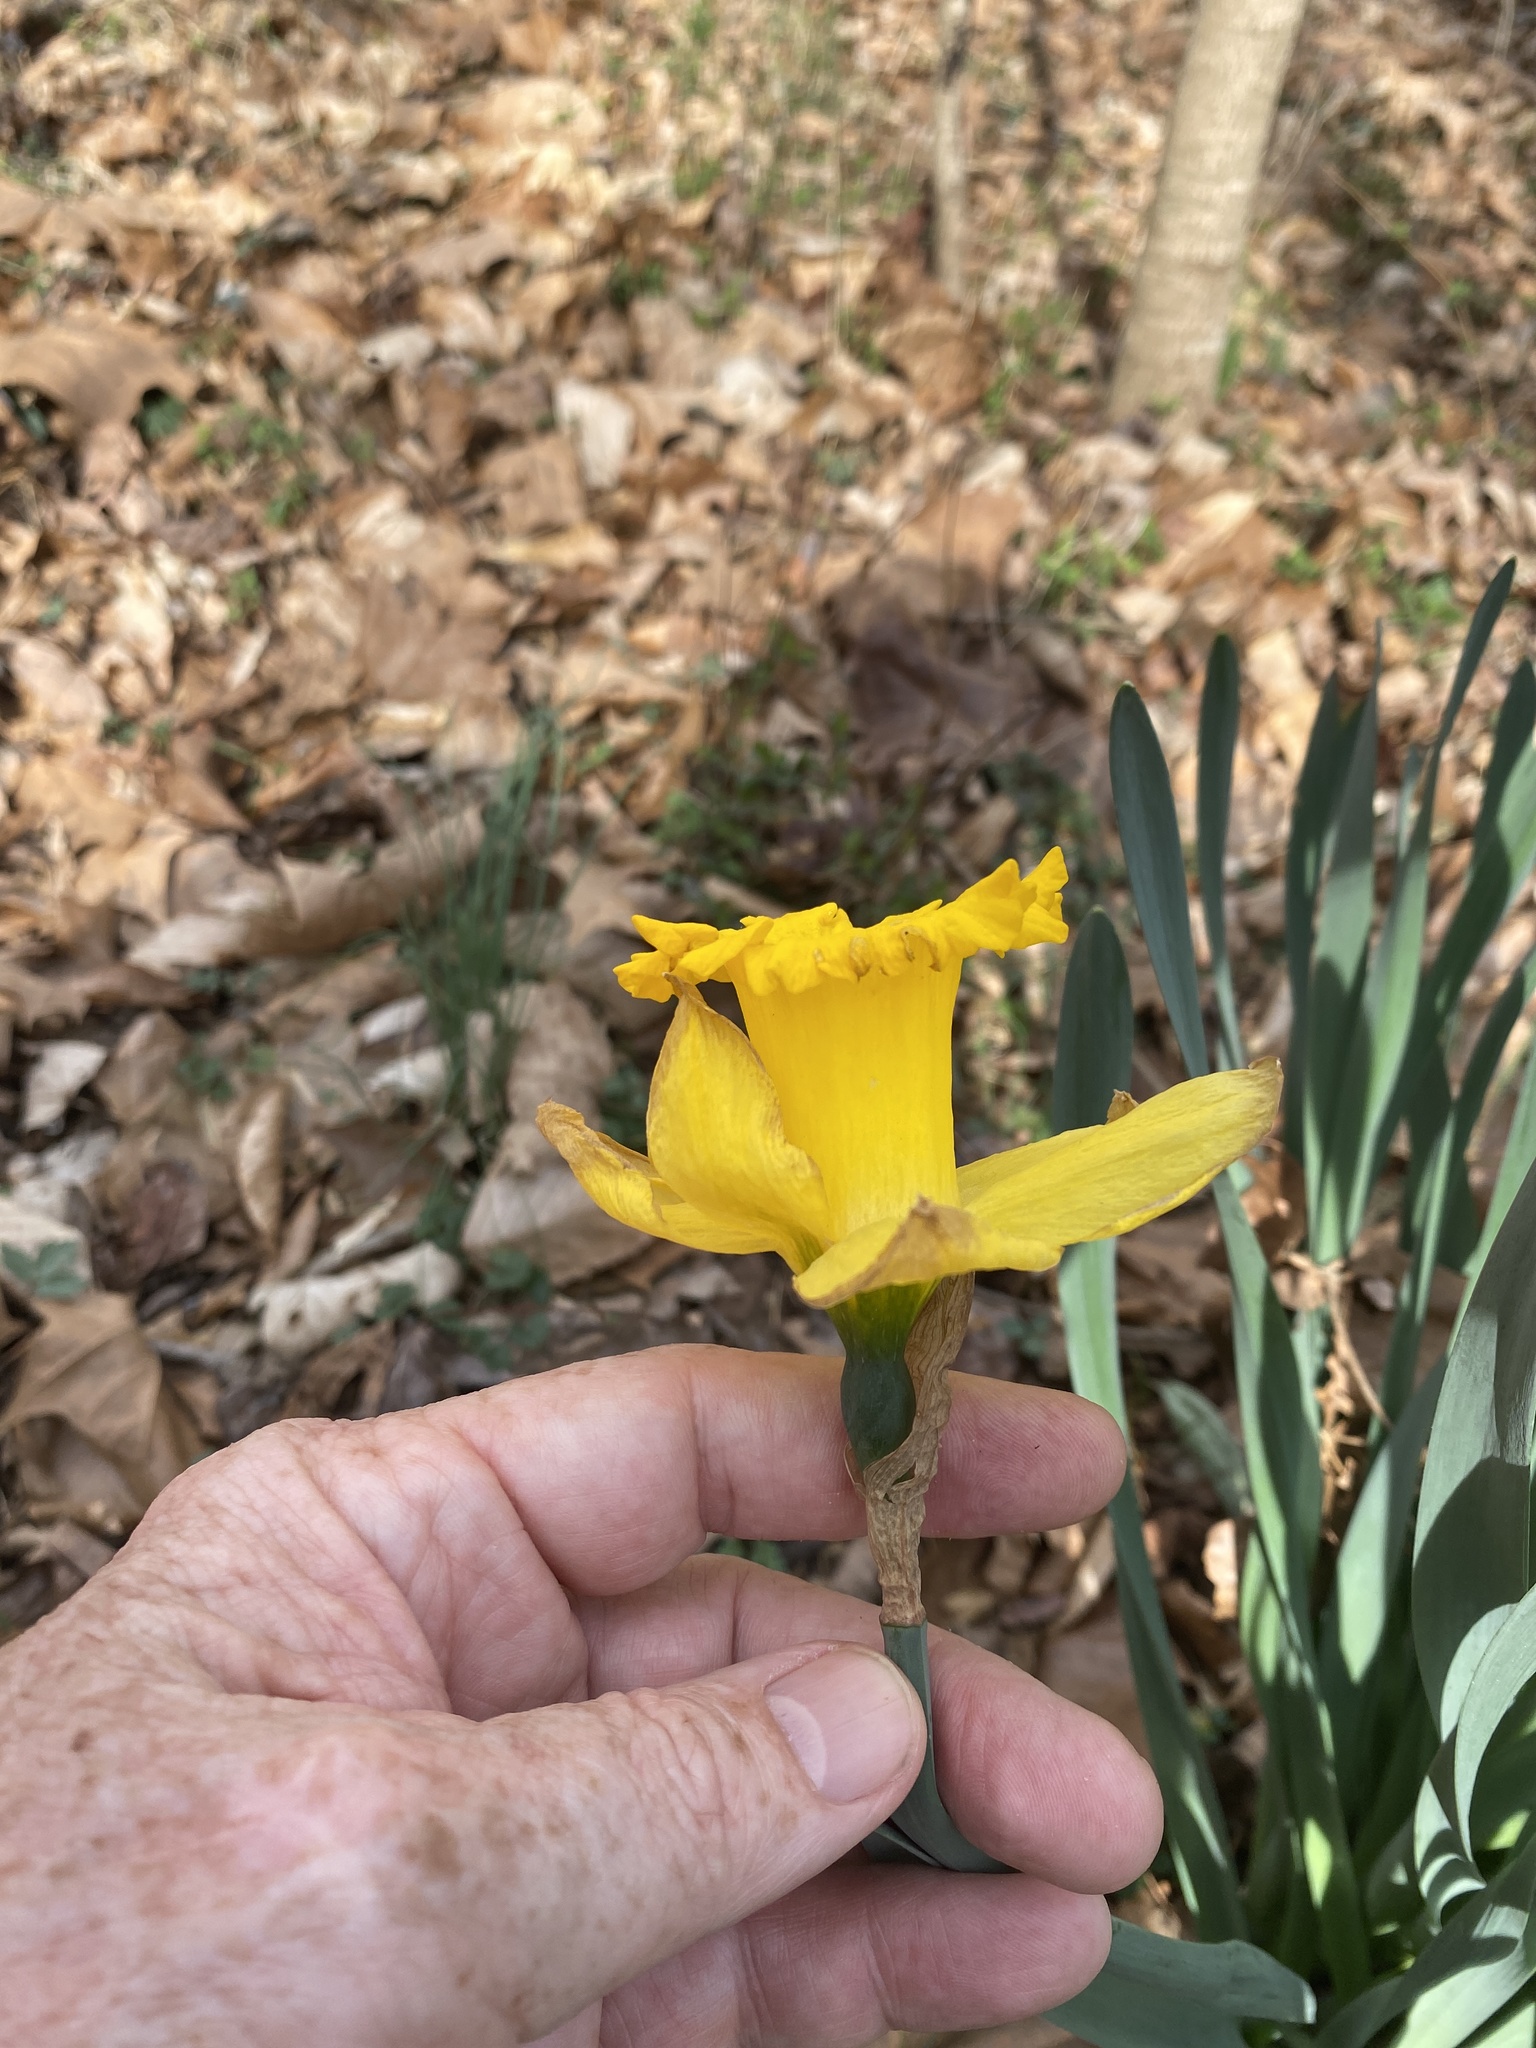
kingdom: Plantae
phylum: Tracheophyta
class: Liliopsida
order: Asparagales
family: Amaryllidaceae
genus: Narcissus
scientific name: Narcissus pseudonarcissus
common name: Daffodil
